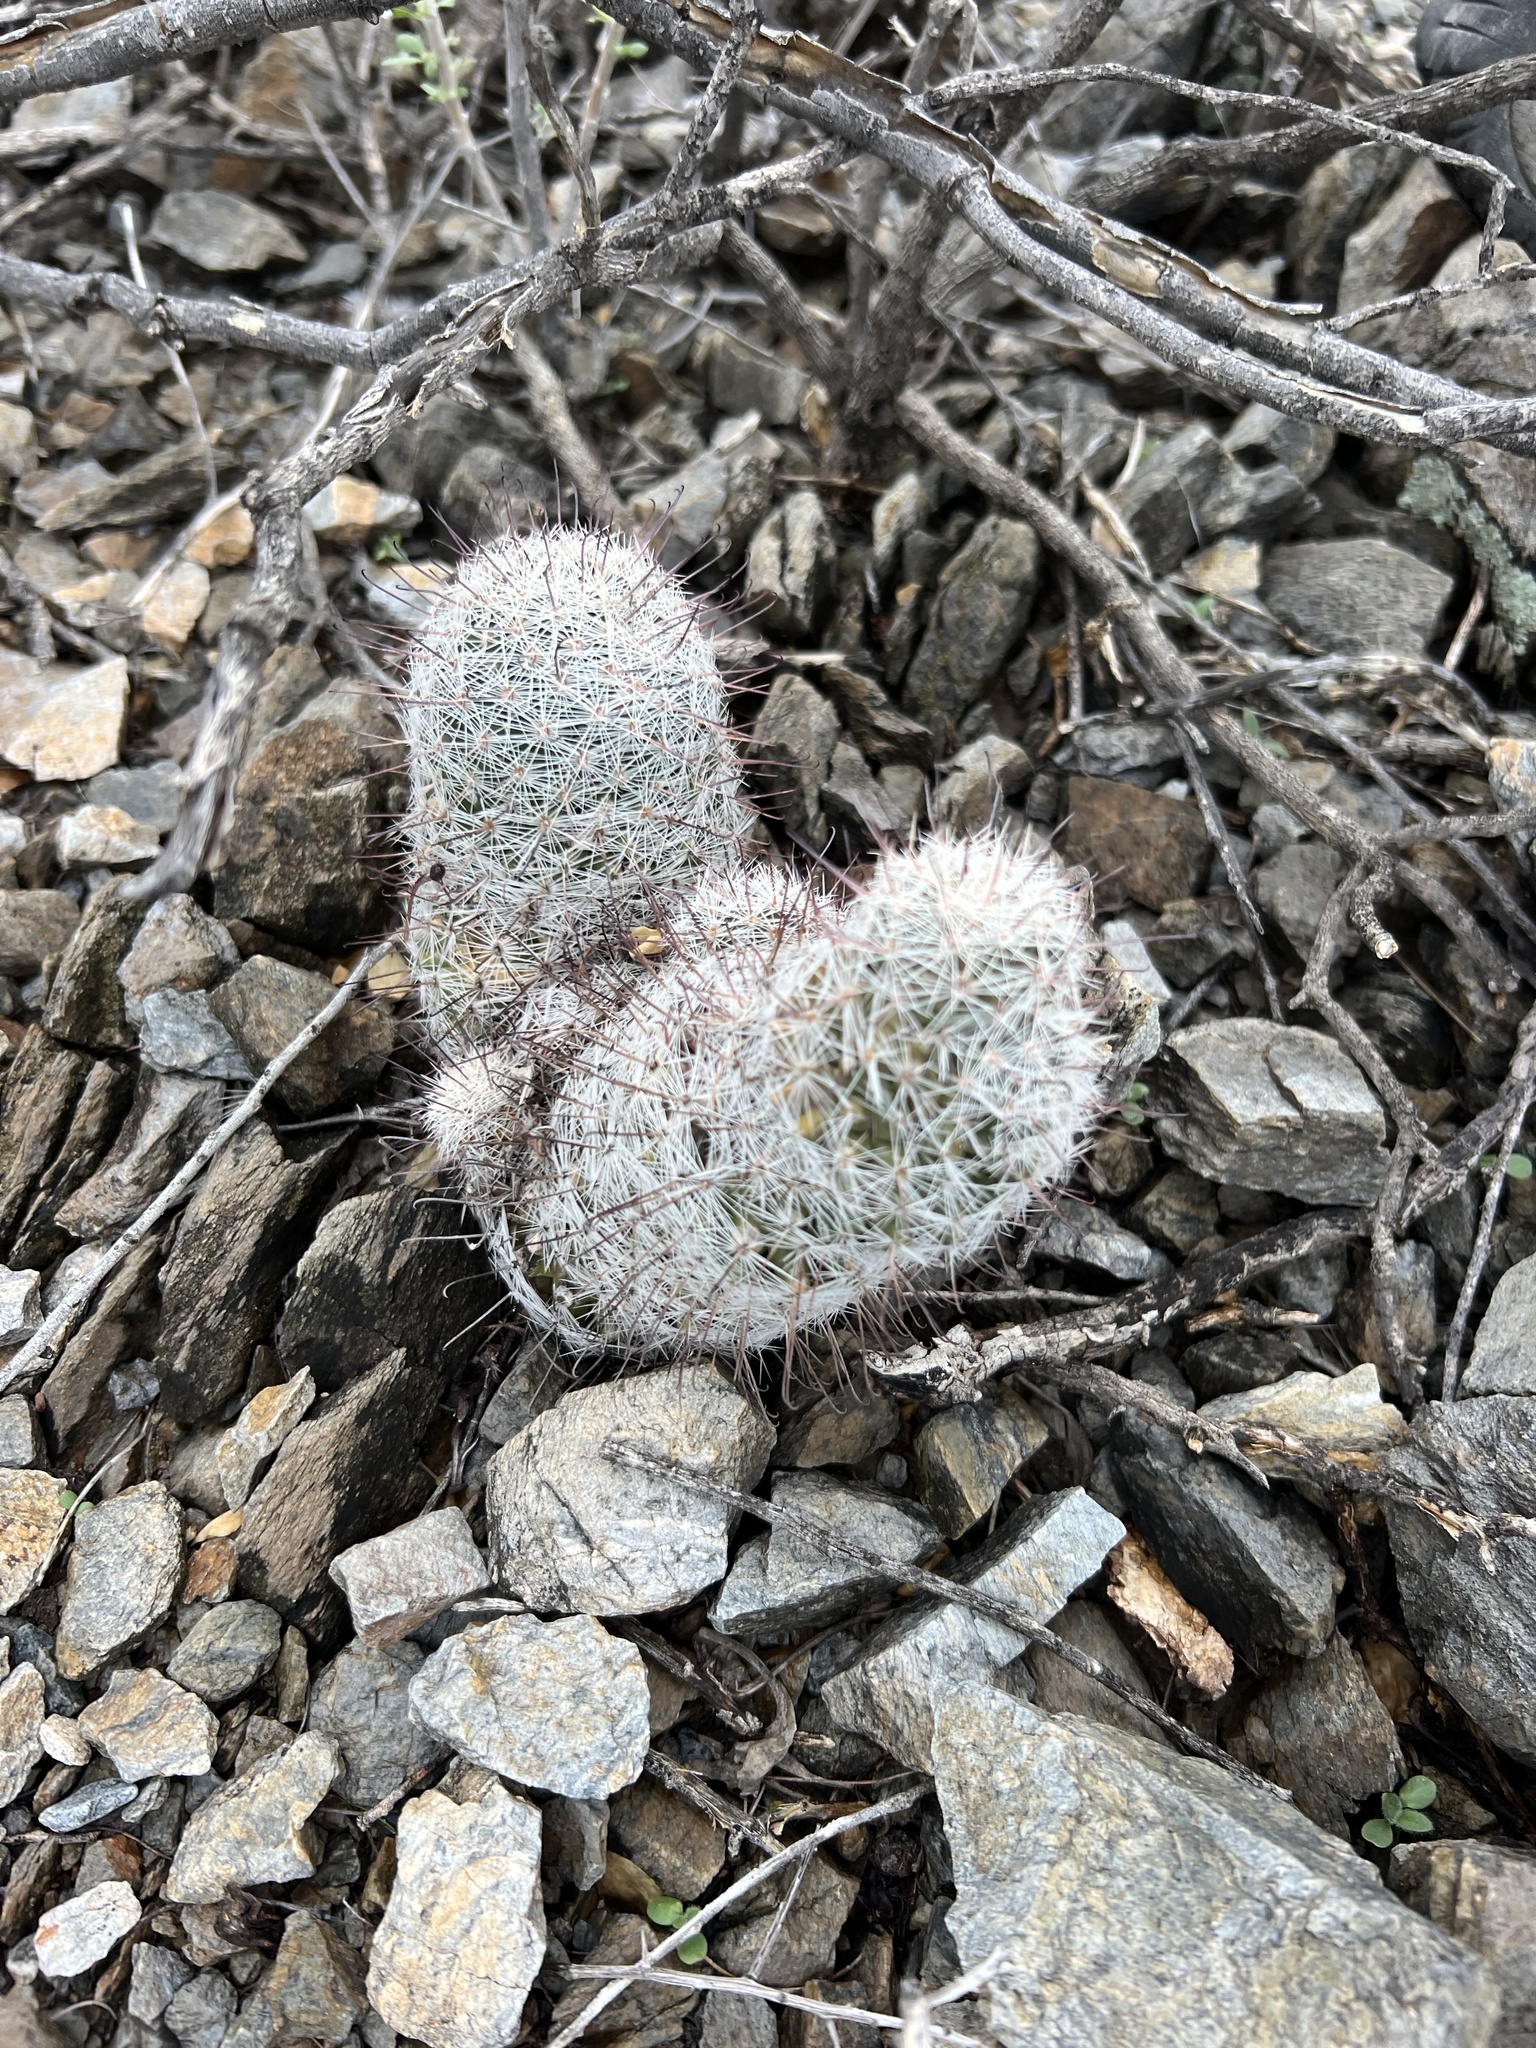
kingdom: Plantae
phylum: Tracheophyta
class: Magnoliopsida
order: Caryophyllales
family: Cactaceae
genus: Cochemiea
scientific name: Cochemiea grahamii
